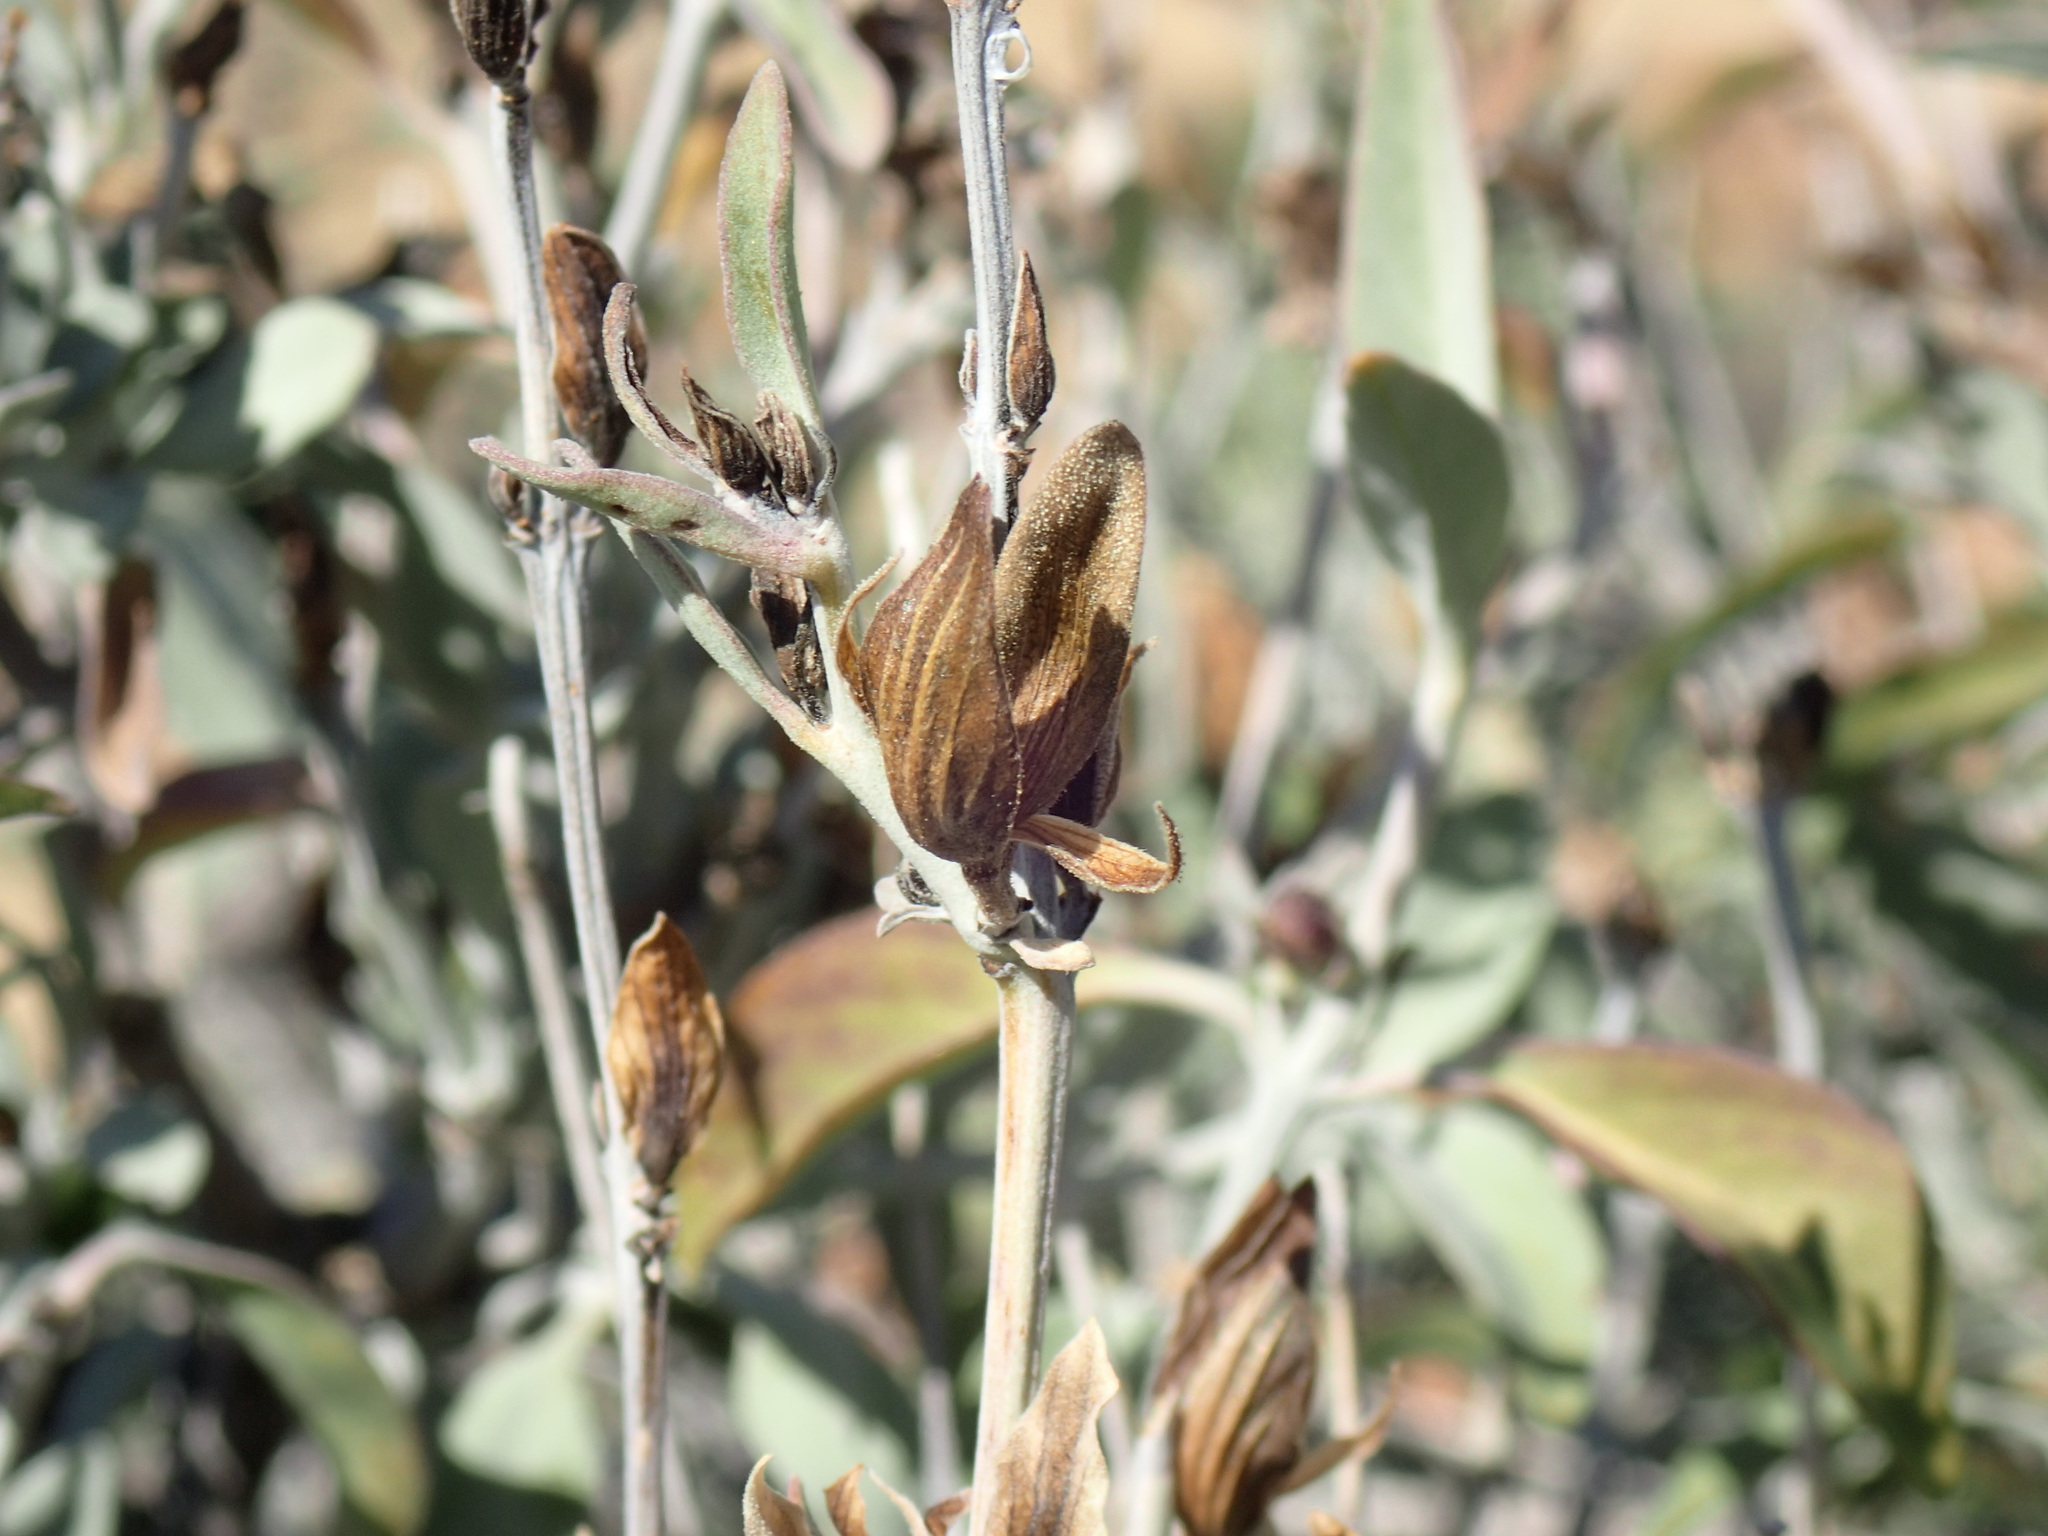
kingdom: Plantae
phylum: Tracheophyta
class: Magnoliopsida
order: Lamiales
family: Acanthaceae
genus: Barleria
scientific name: Barleria lancifolia
